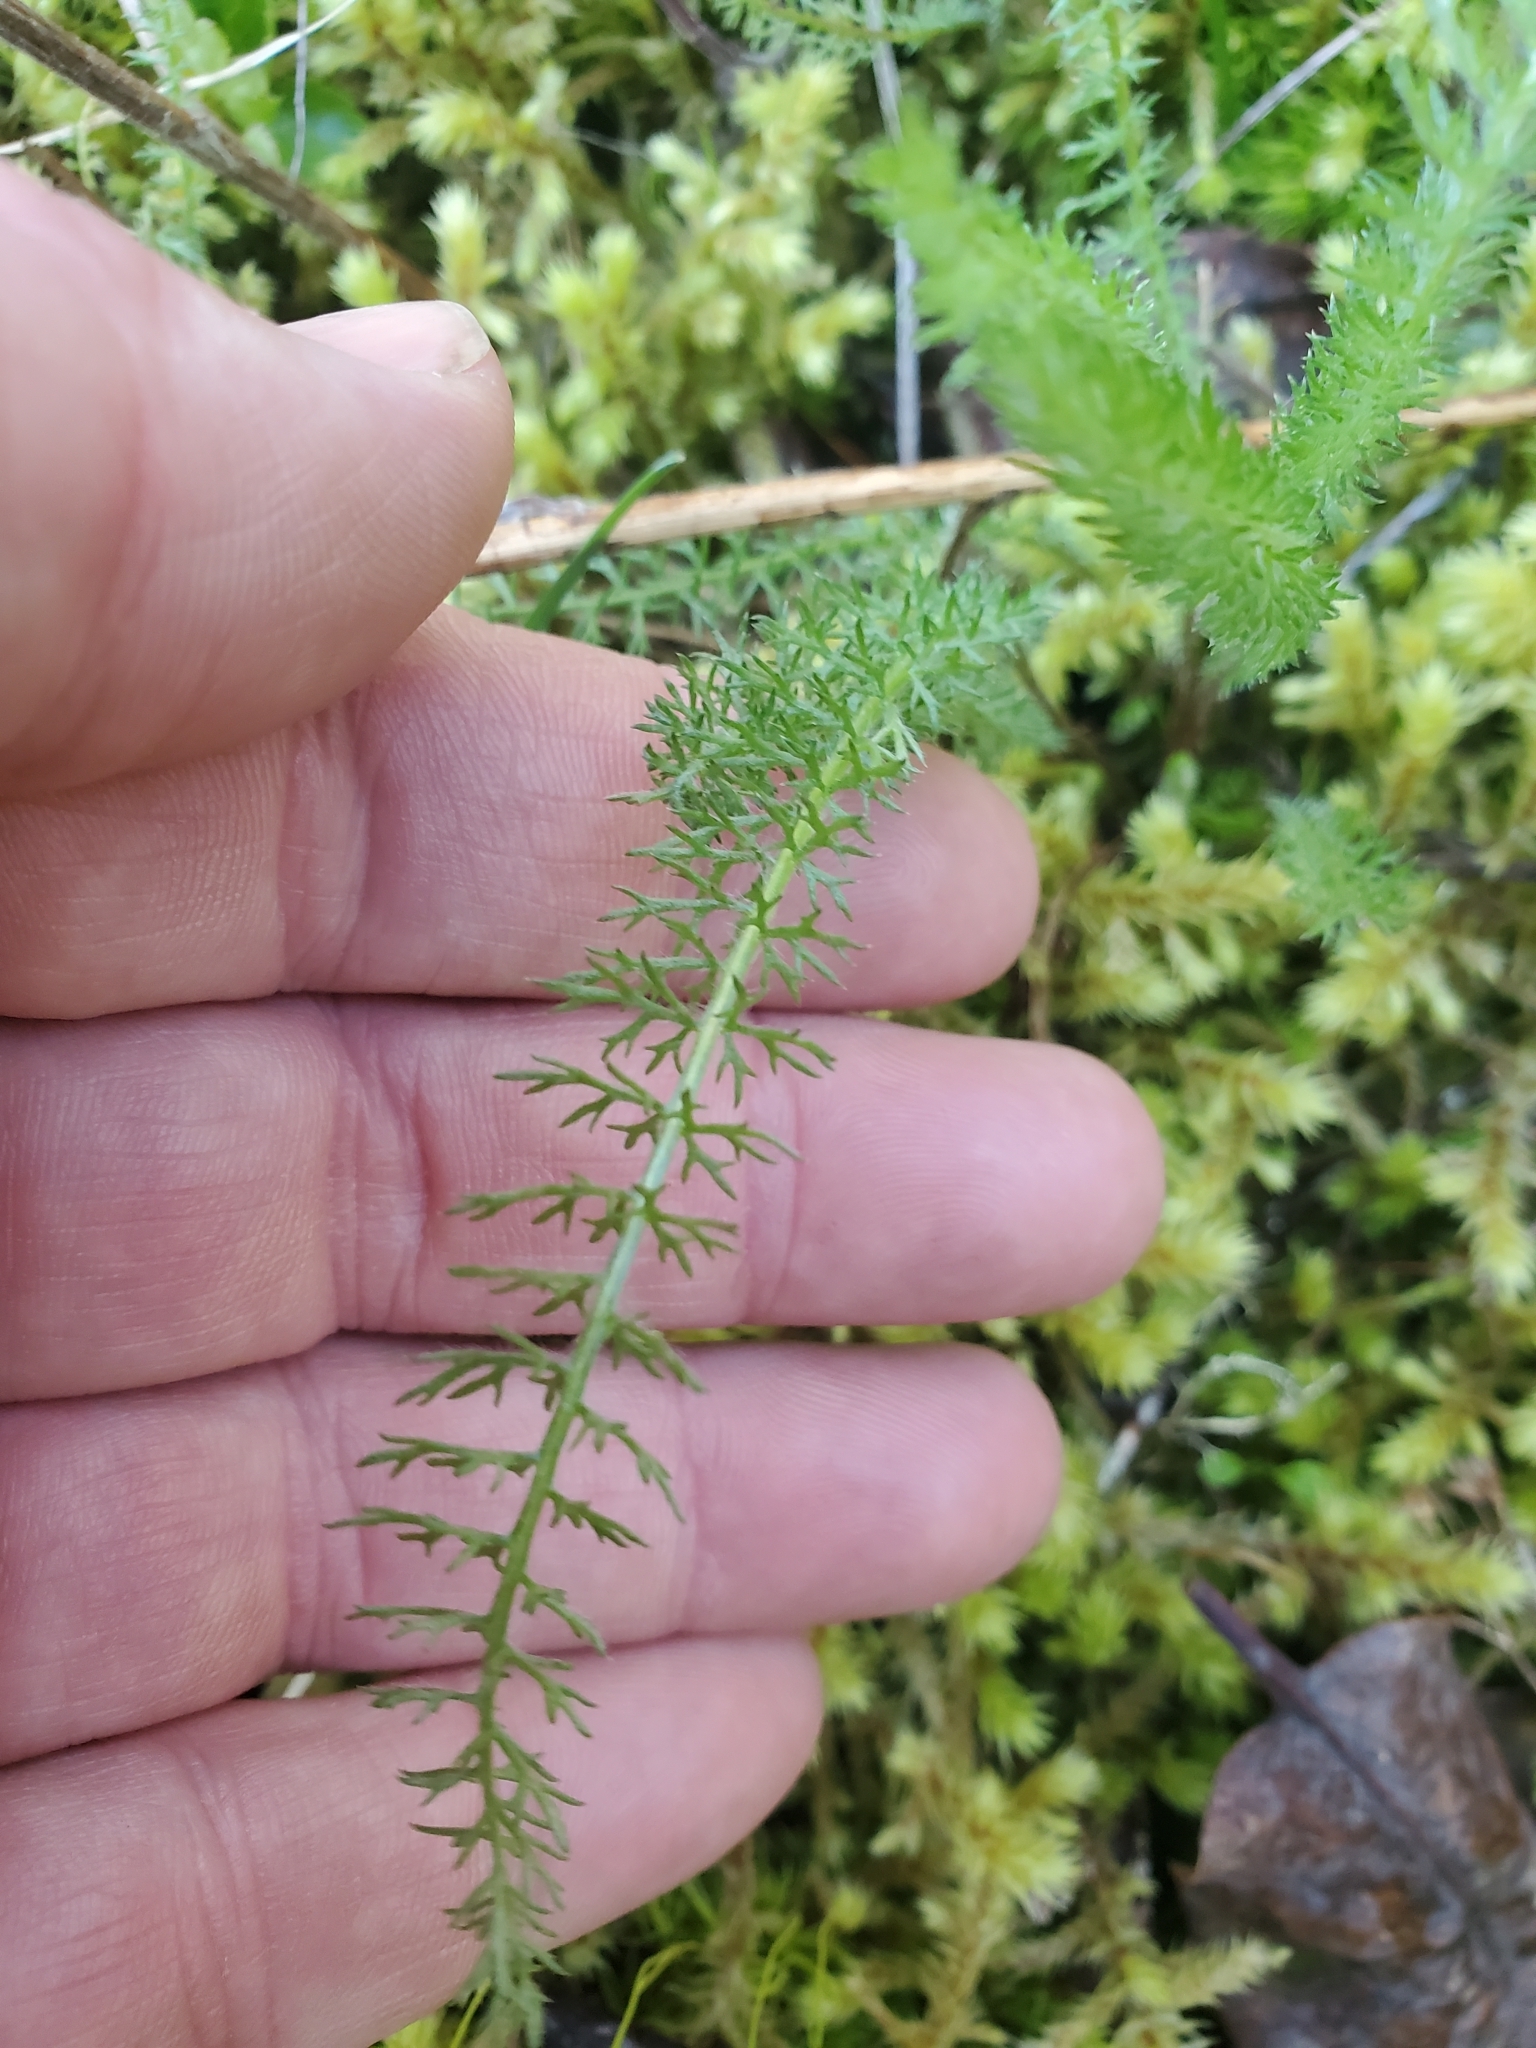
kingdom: Plantae
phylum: Tracheophyta
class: Magnoliopsida
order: Asterales
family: Asteraceae
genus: Achillea
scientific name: Achillea millefolium
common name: Yarrow
